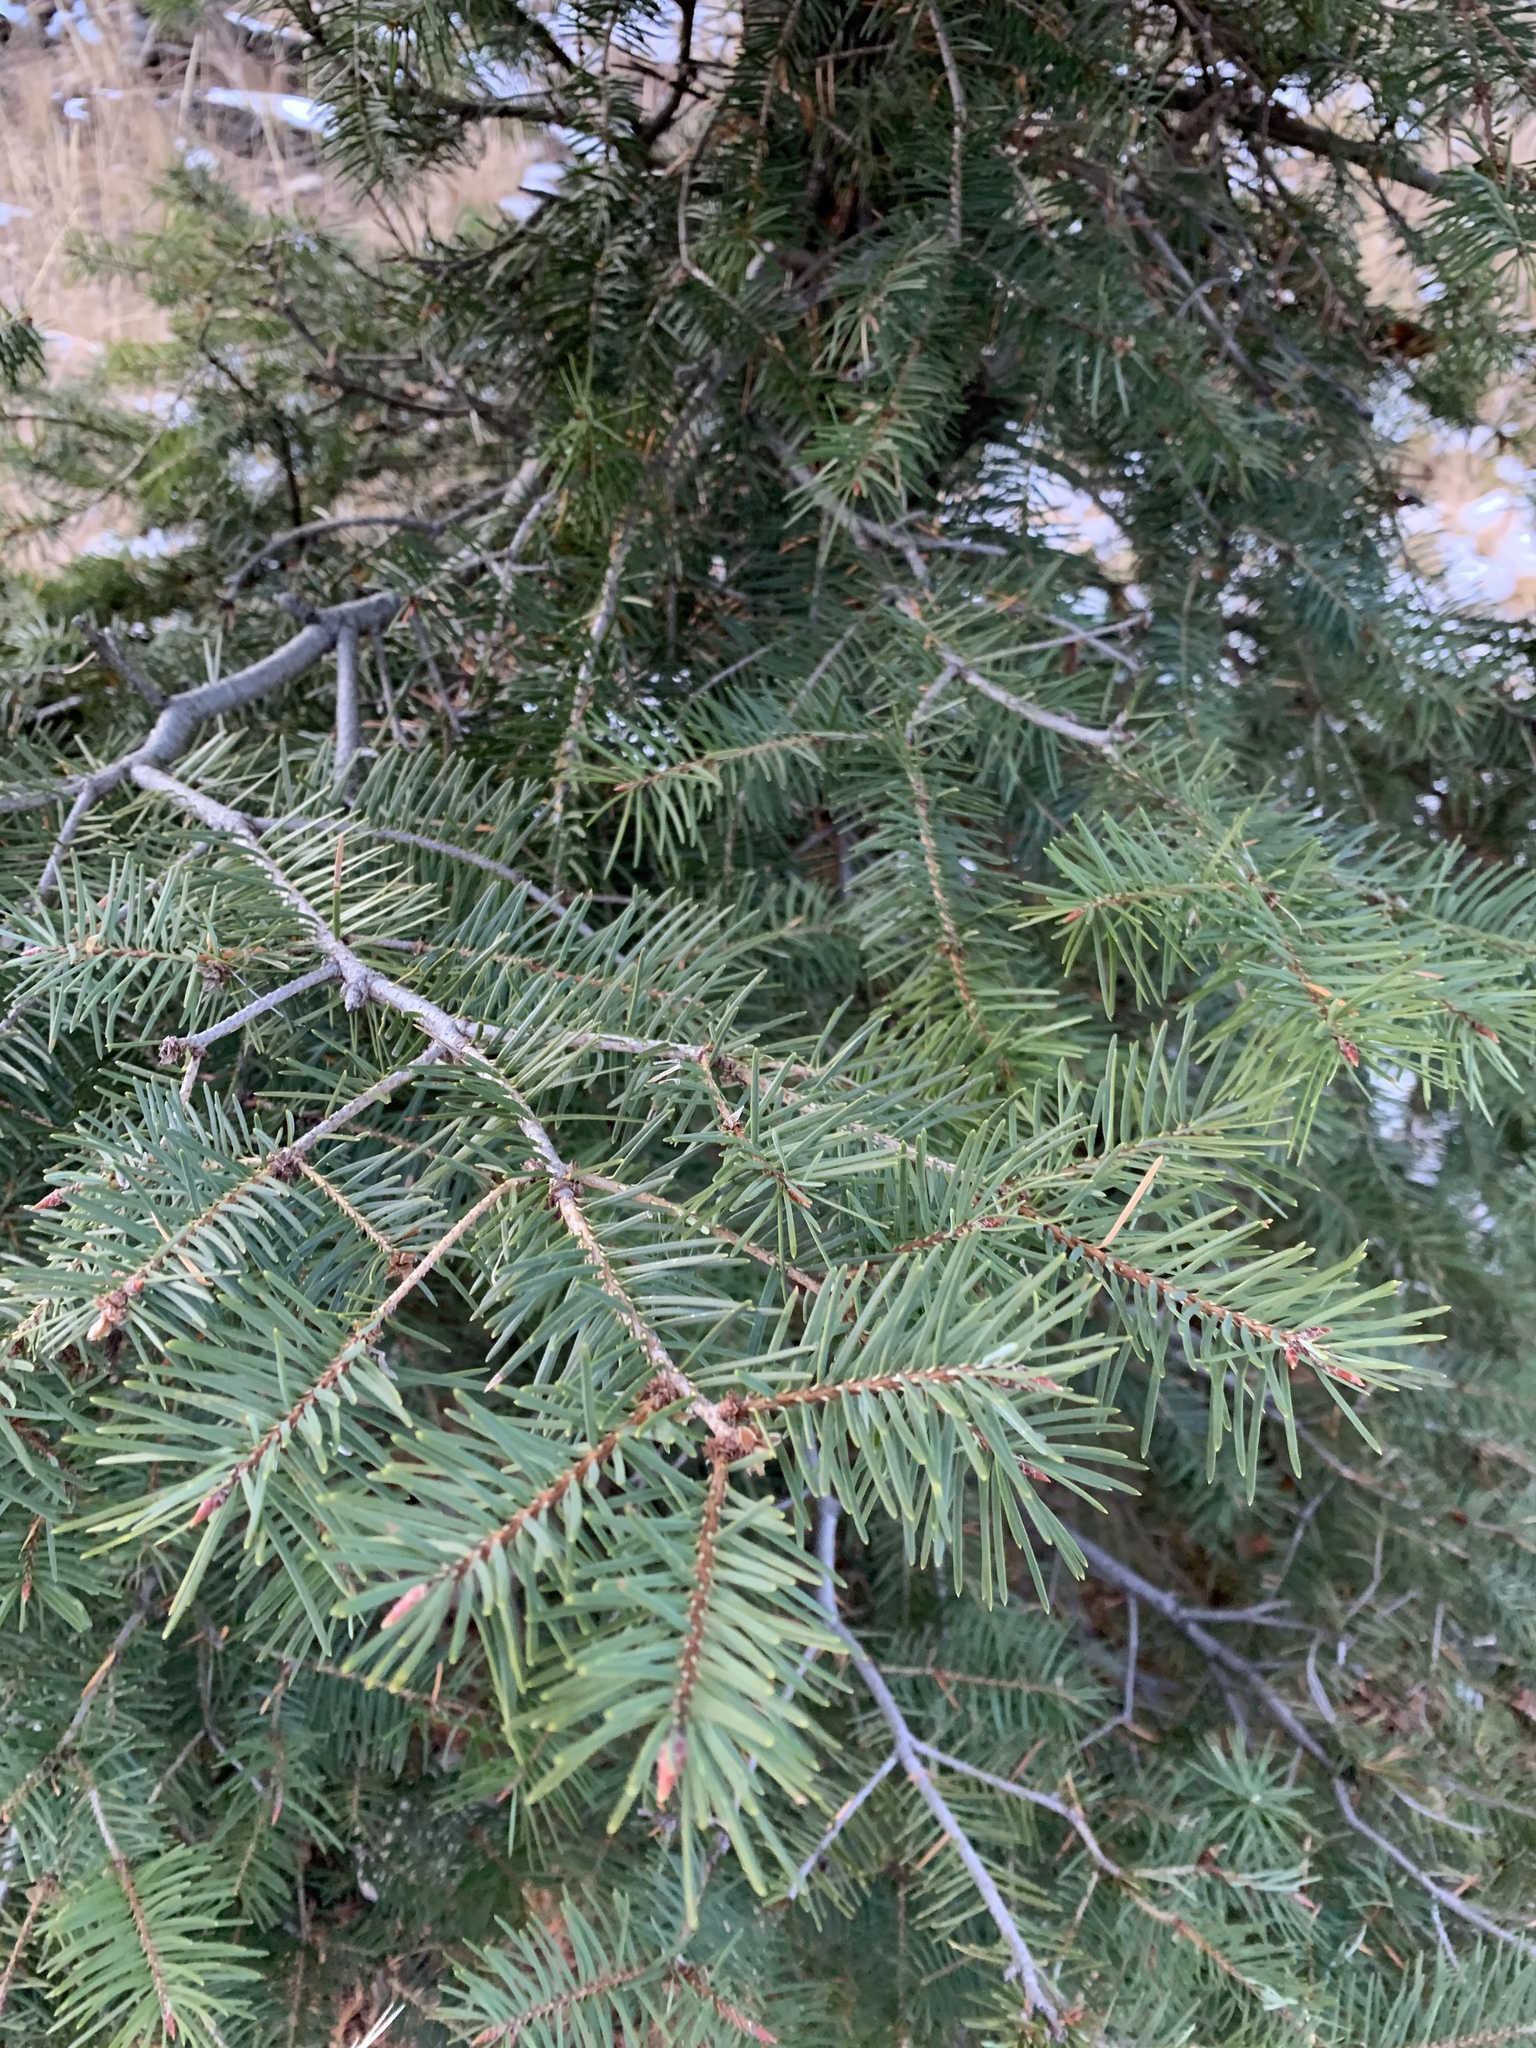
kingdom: Plantae
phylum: Tracheophyta
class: Pinopsida
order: Pinales
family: Pinaceae
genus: Pseudotsuga
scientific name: Pseudotsuga menziesii
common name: Douglas fir
